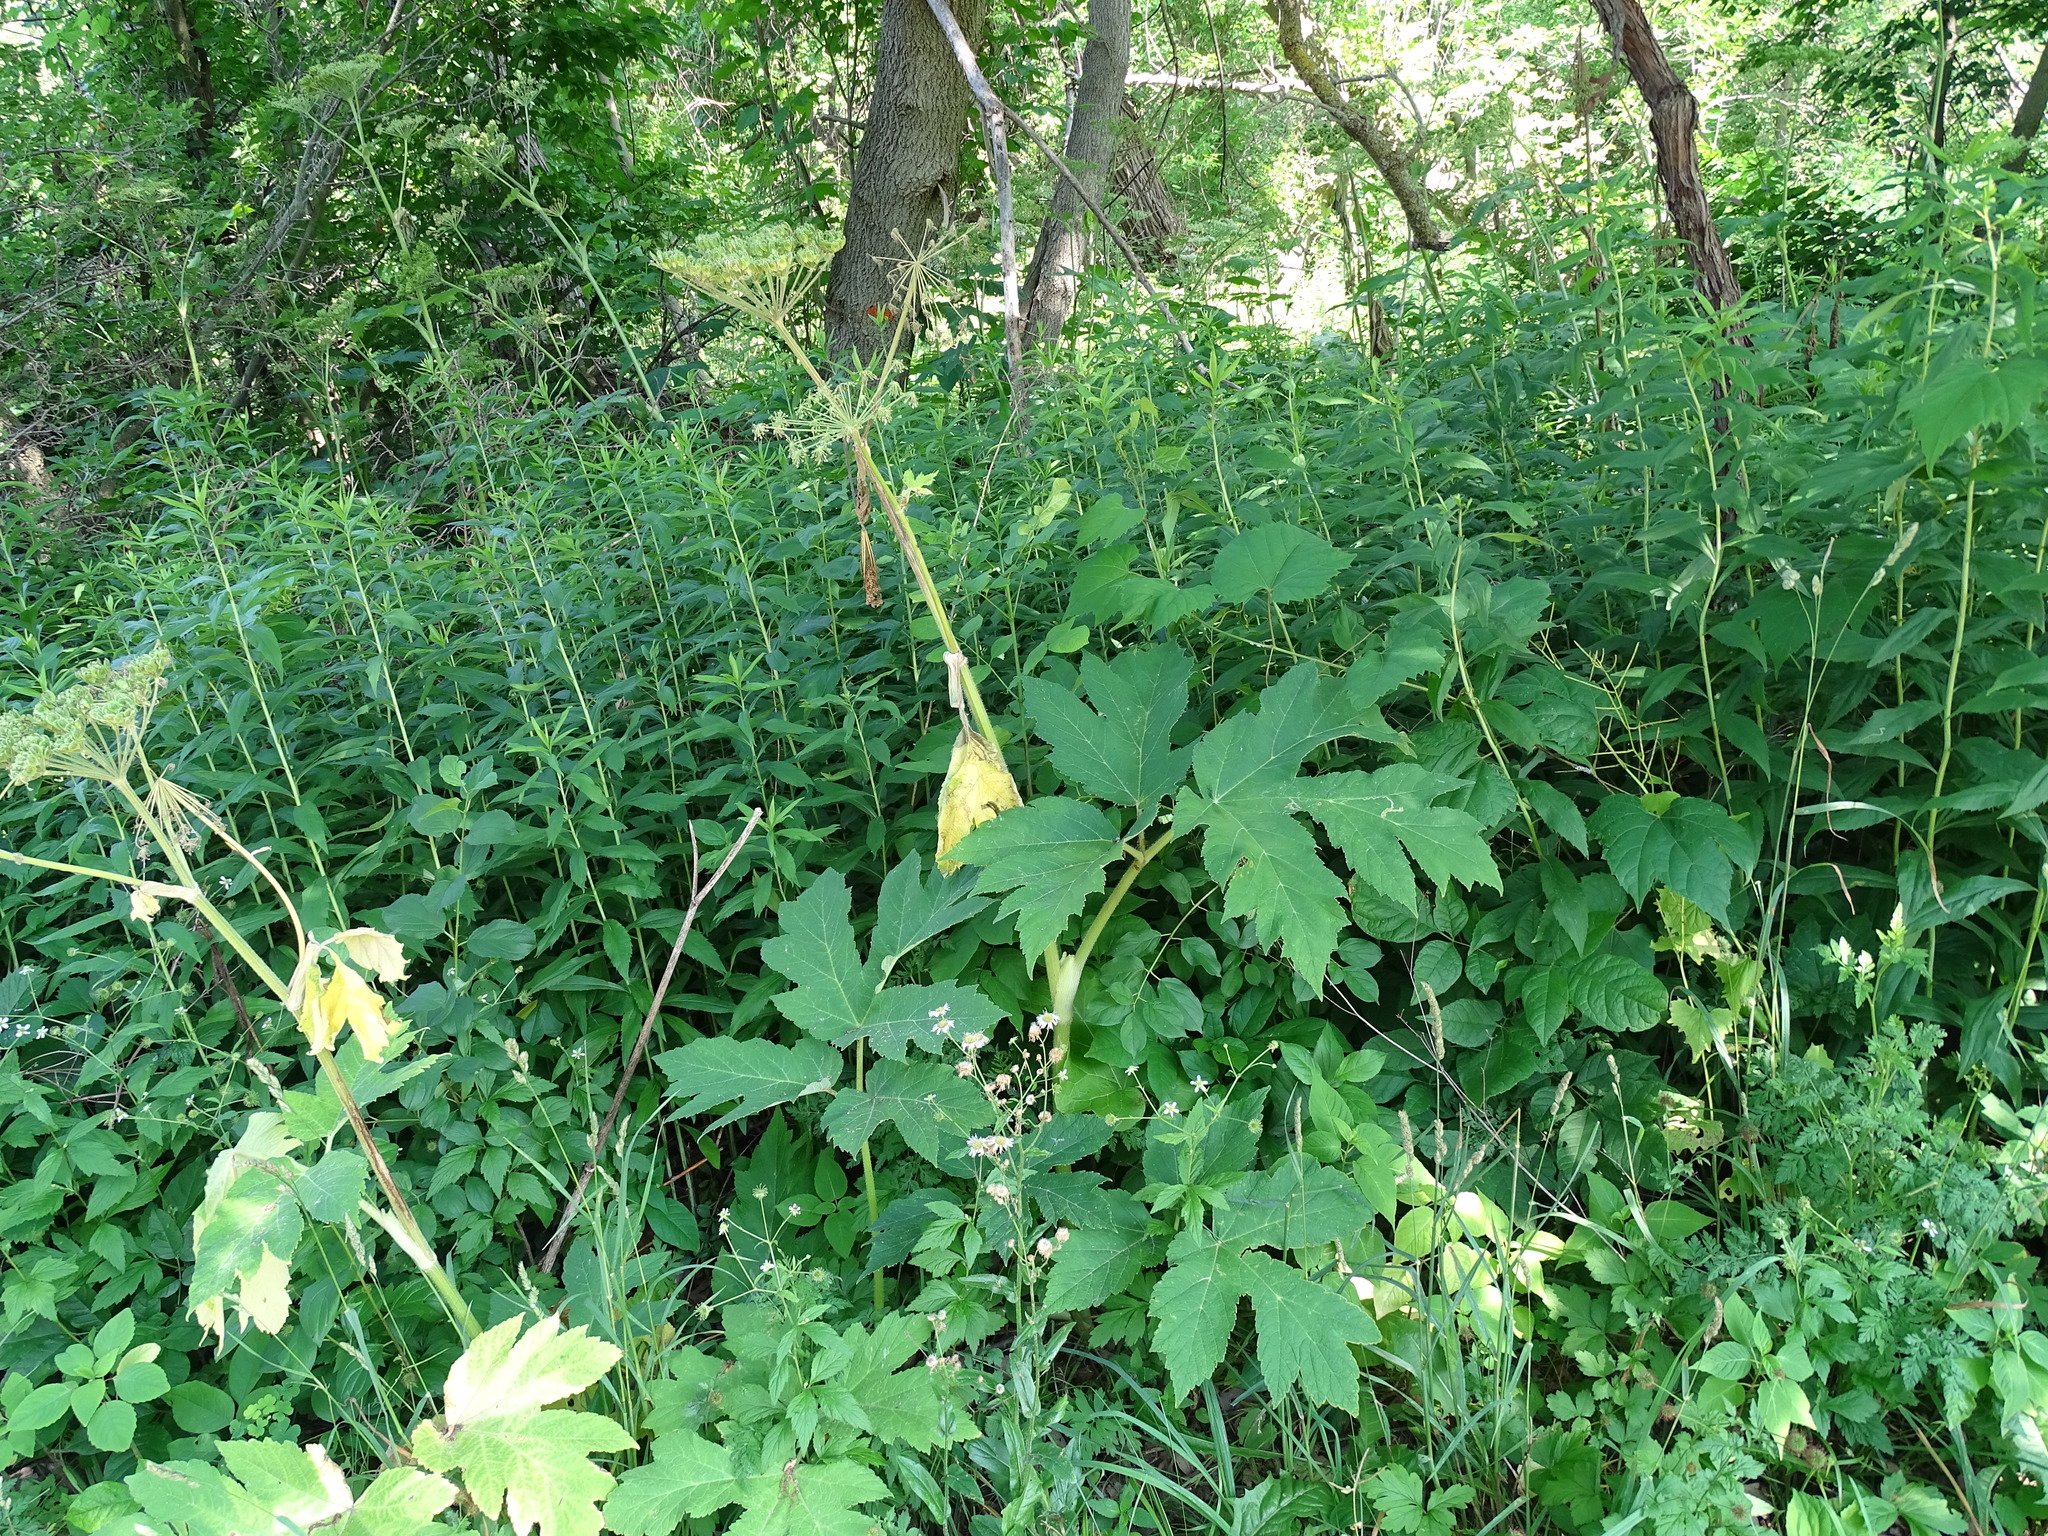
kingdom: Plantae
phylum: Tracheophyta
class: Magnoliopsida
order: Apiales
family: Apiaceae
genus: Heracleum
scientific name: Heracleum maximum
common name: American cow parsnip
